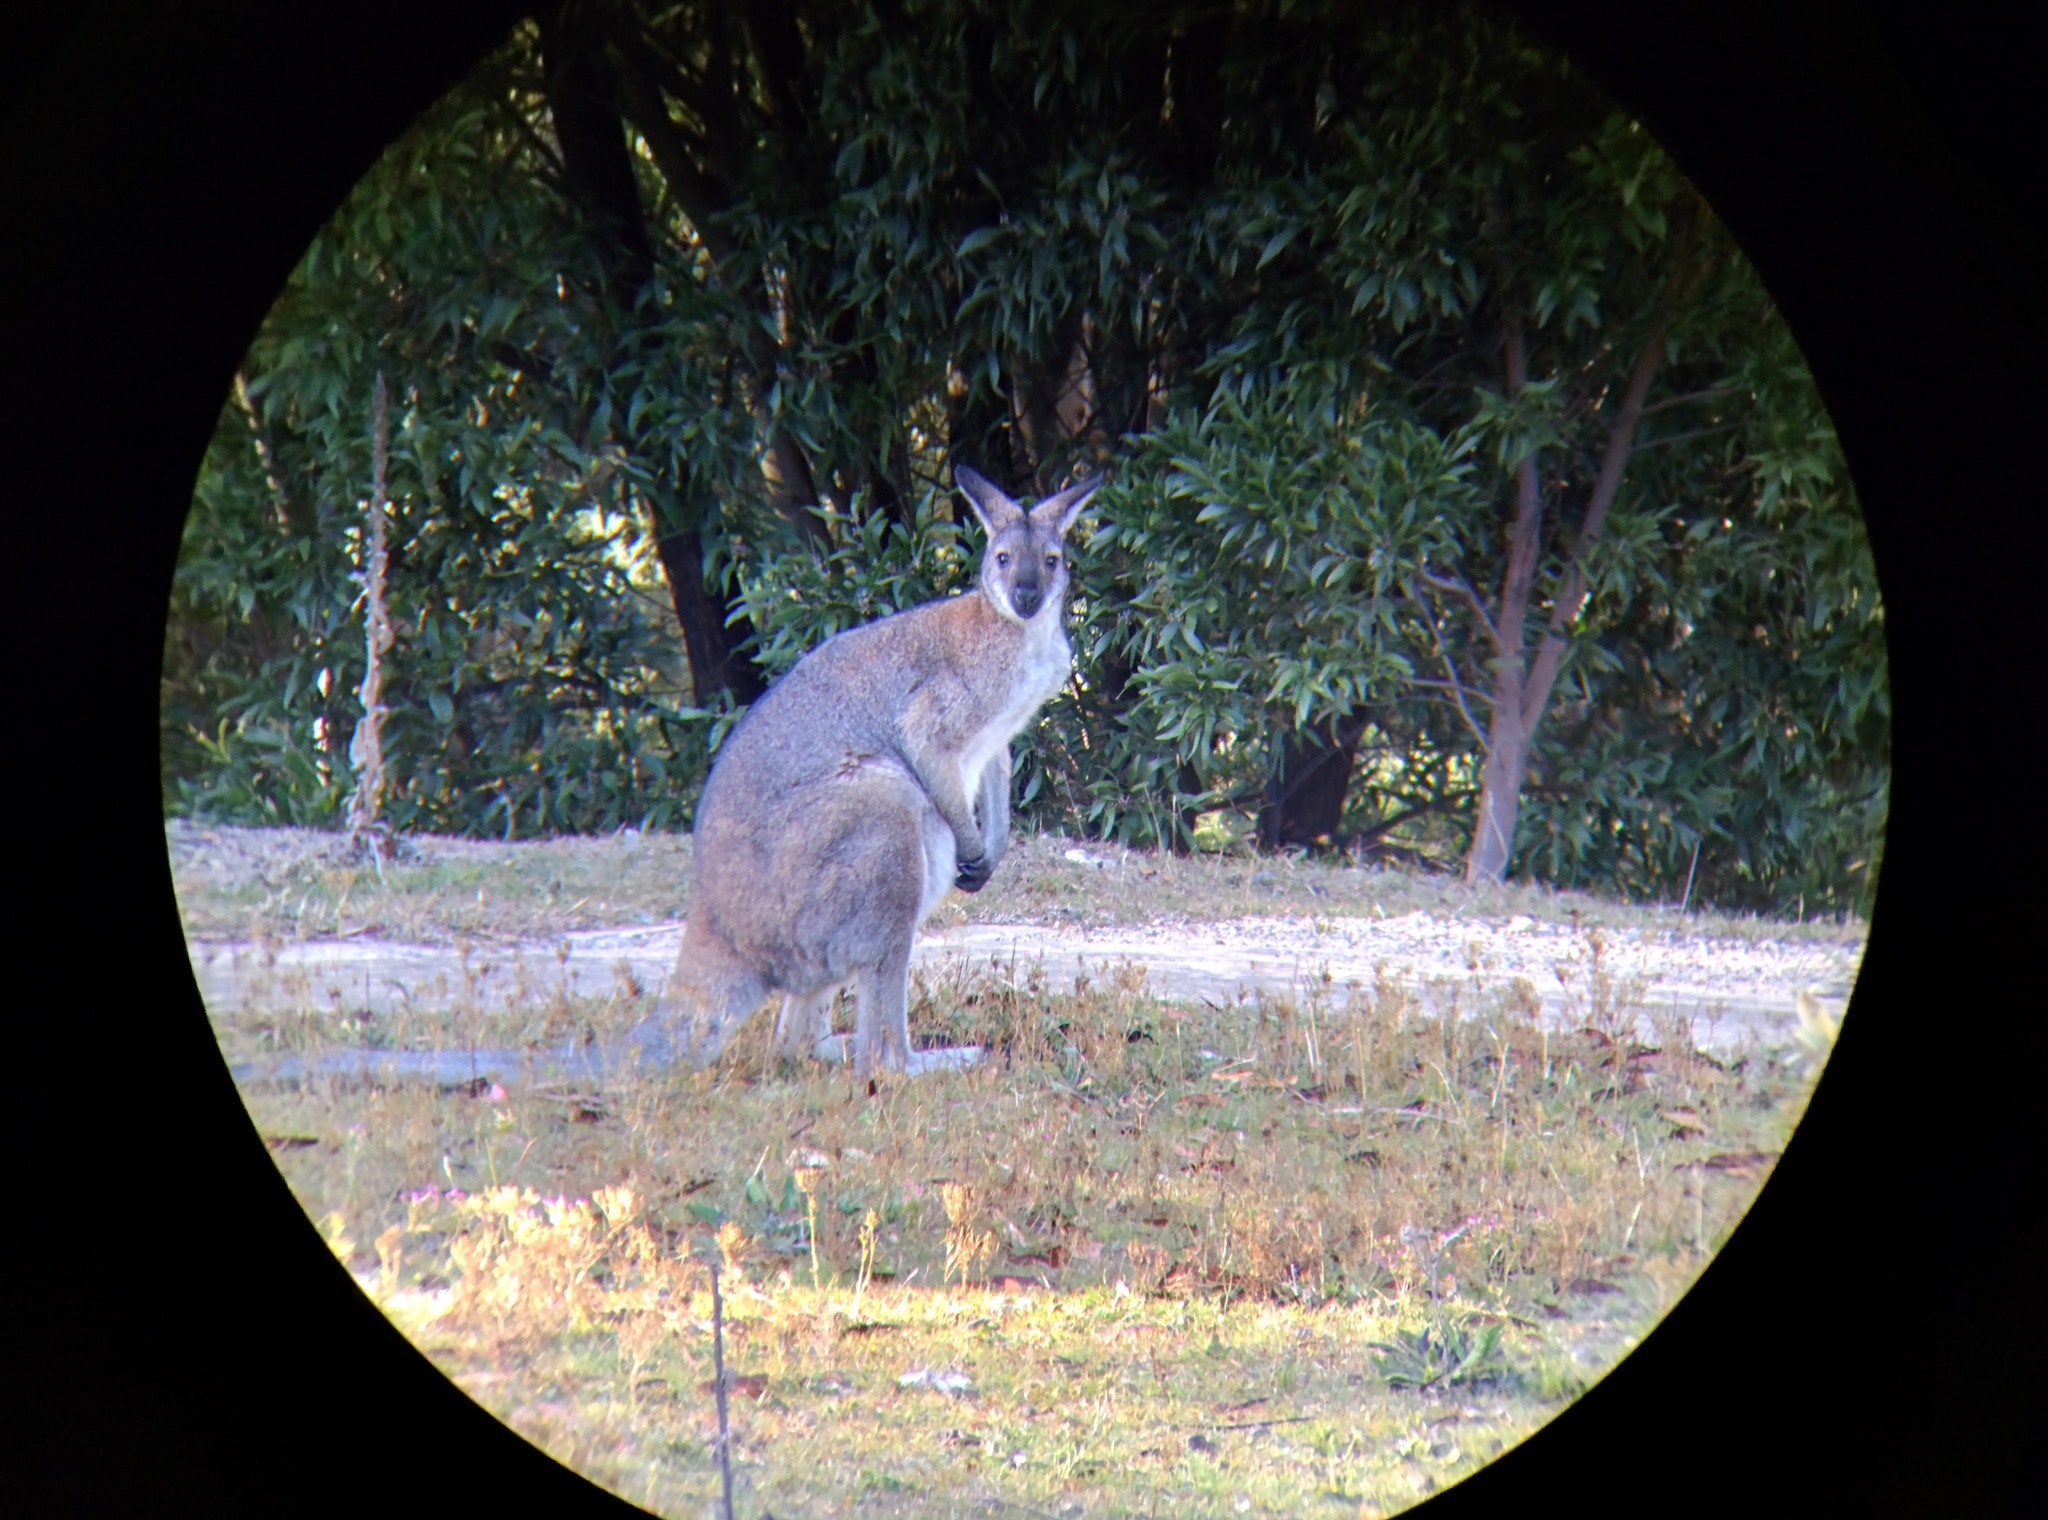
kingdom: Animalia
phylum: Chordata
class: Mammalia
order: Diprotodontia
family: Macropodidae
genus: Notamacropus
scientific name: Notamacropus rufogriseus
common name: Red-necked wallaby
